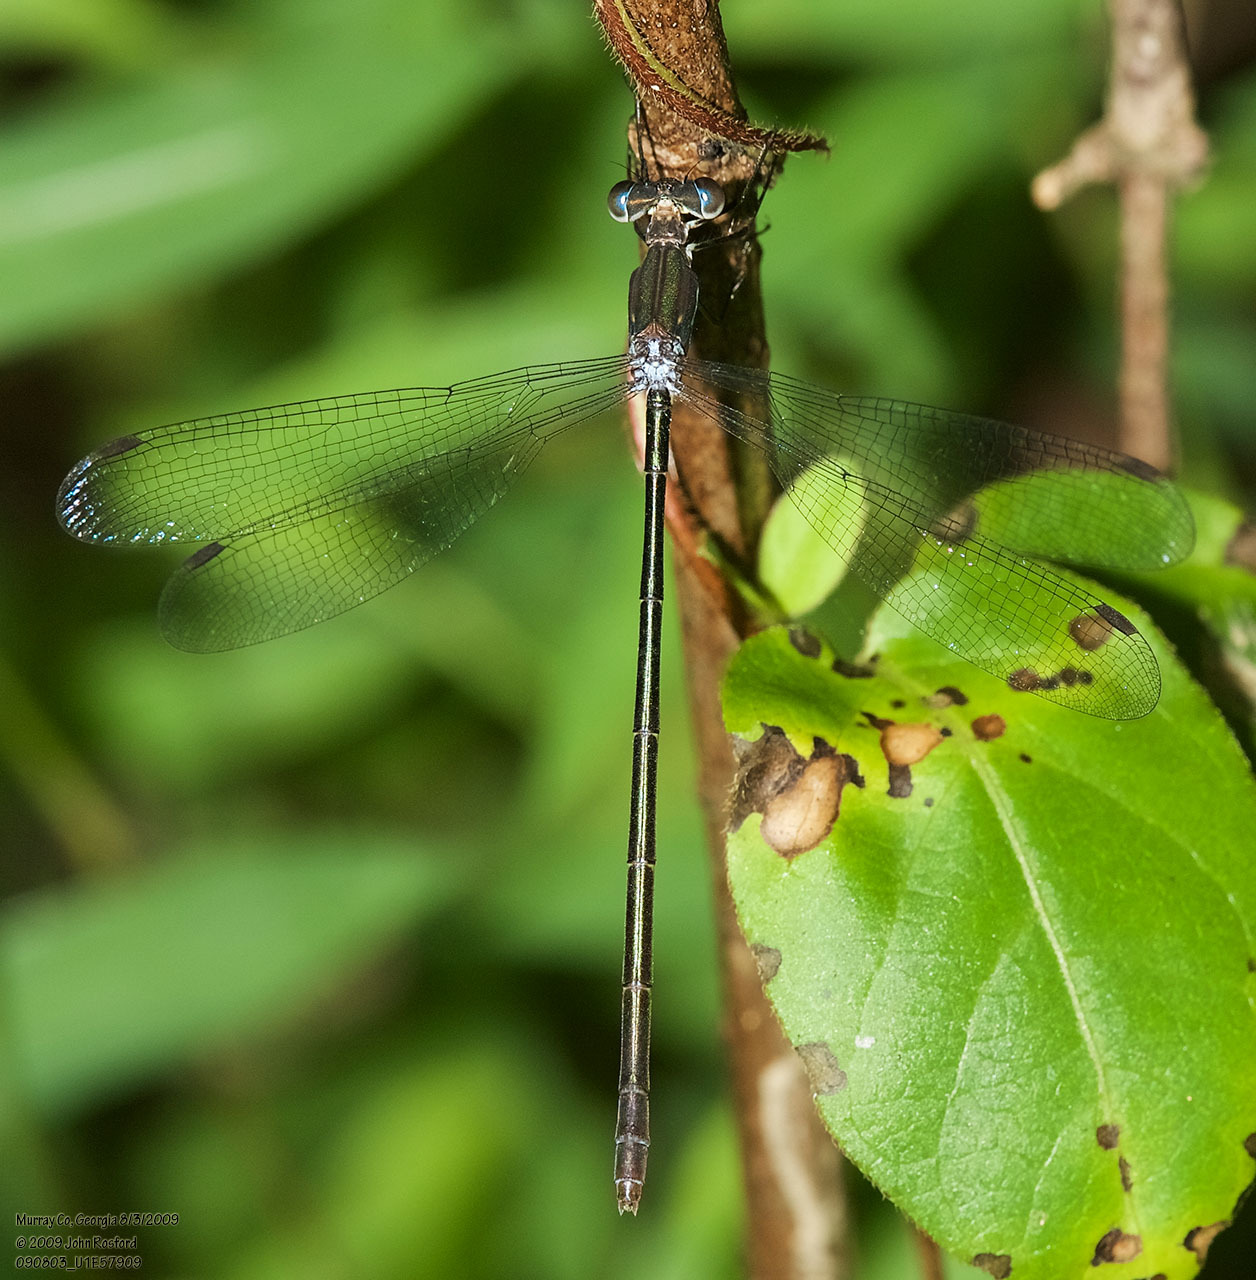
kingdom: Animalia
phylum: Arthropoda
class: Insecta
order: Odonata
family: Lestidae
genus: Lestes
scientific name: Lestes vigilax
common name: Swamp spreadwing
